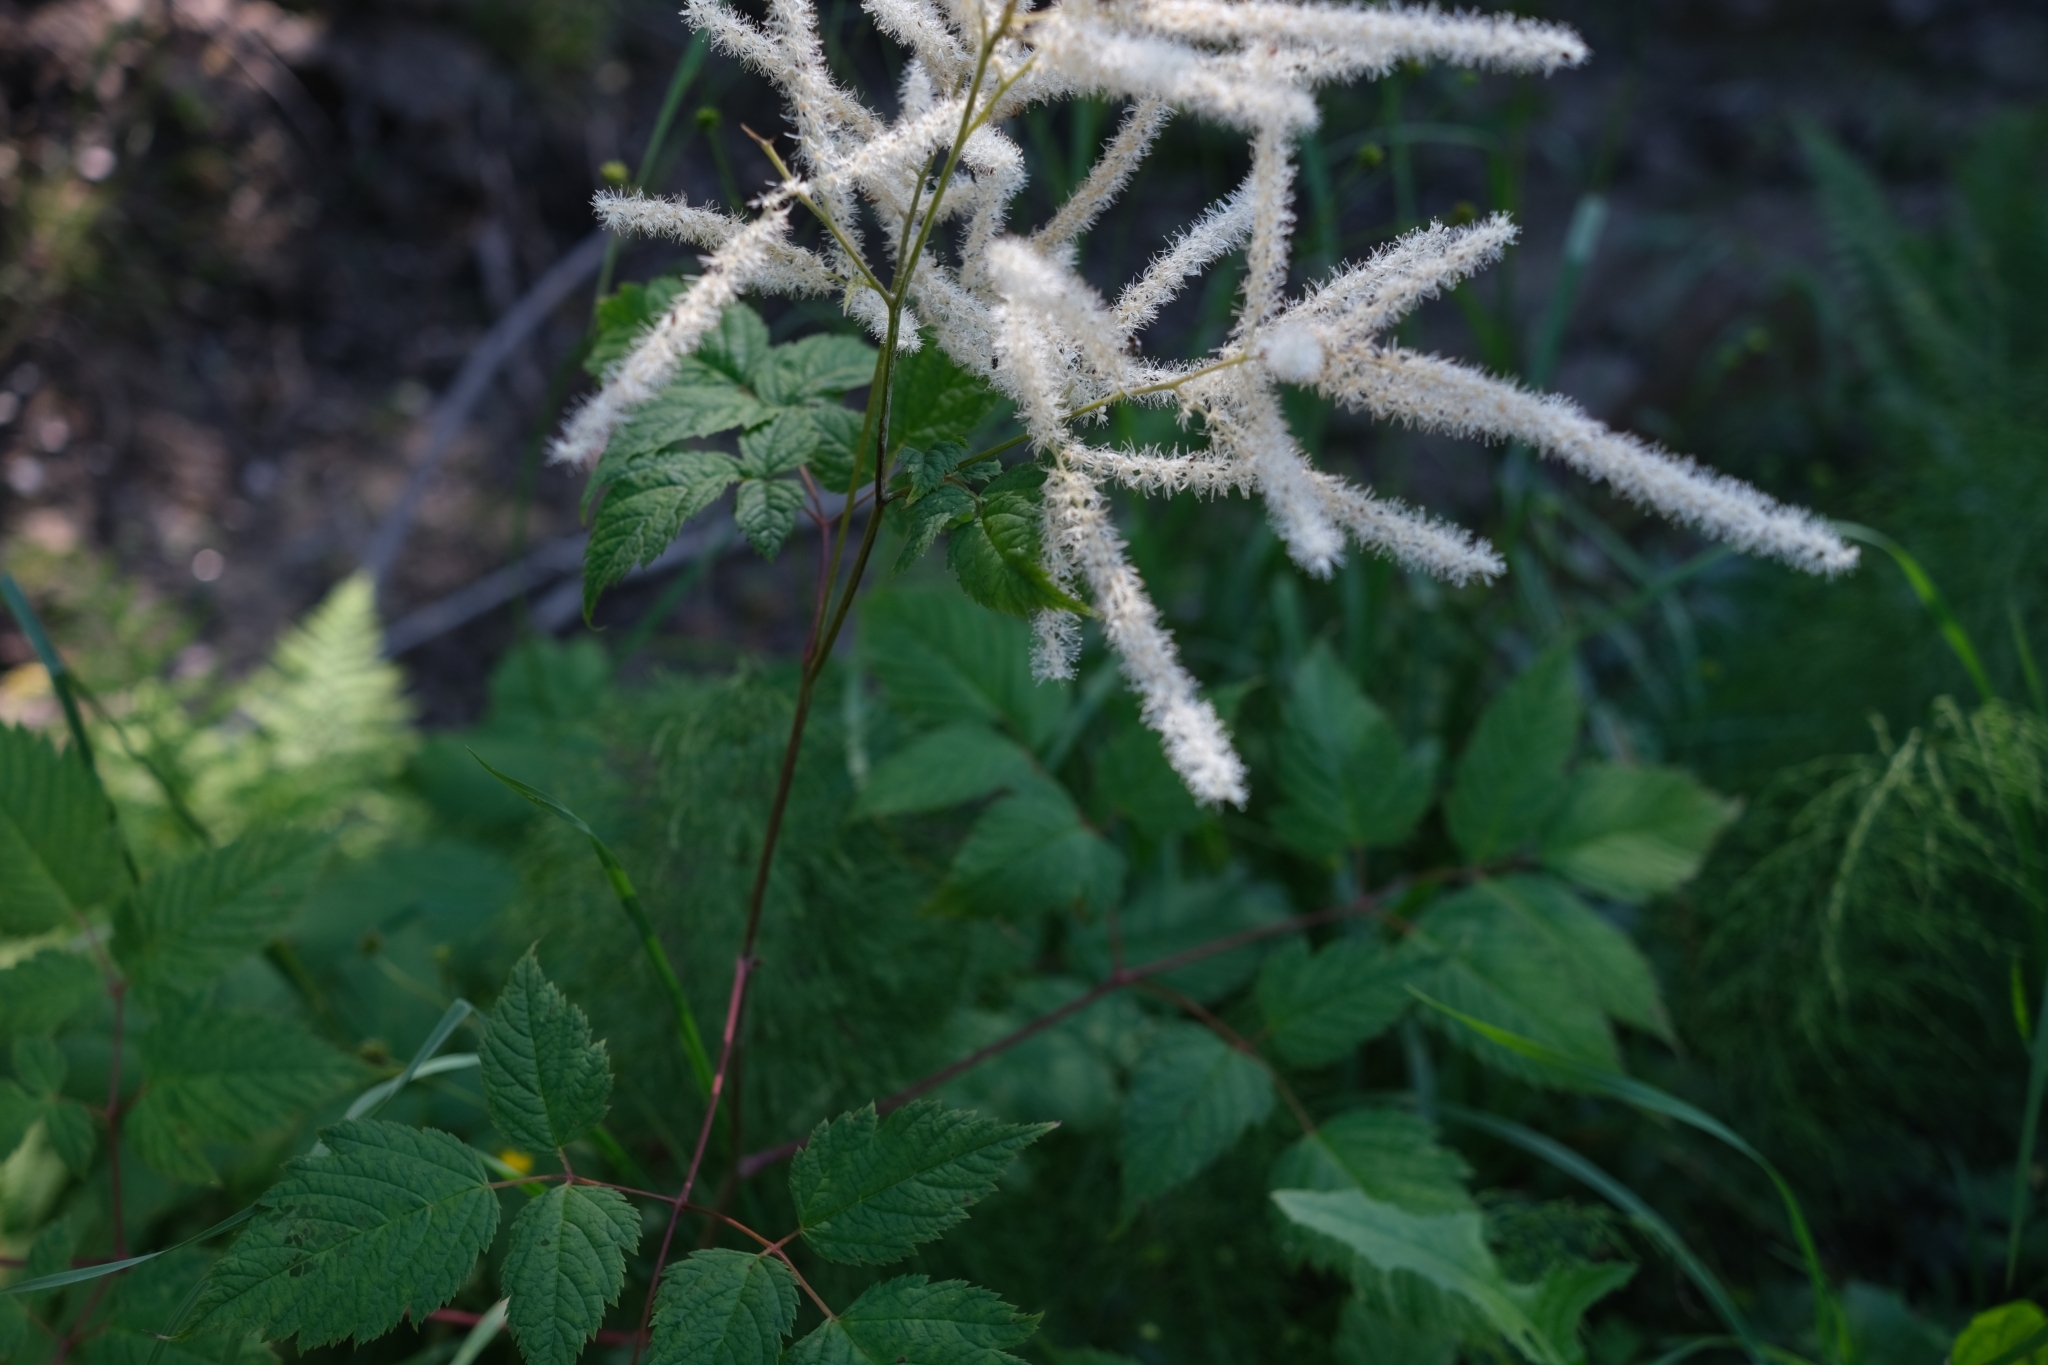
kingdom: Plantae
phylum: Tracheophyta
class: Magnoliopsida
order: Rosales
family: Rosaceae
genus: Aruncus
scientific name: Aruncus dioicus
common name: Buck's-beard
